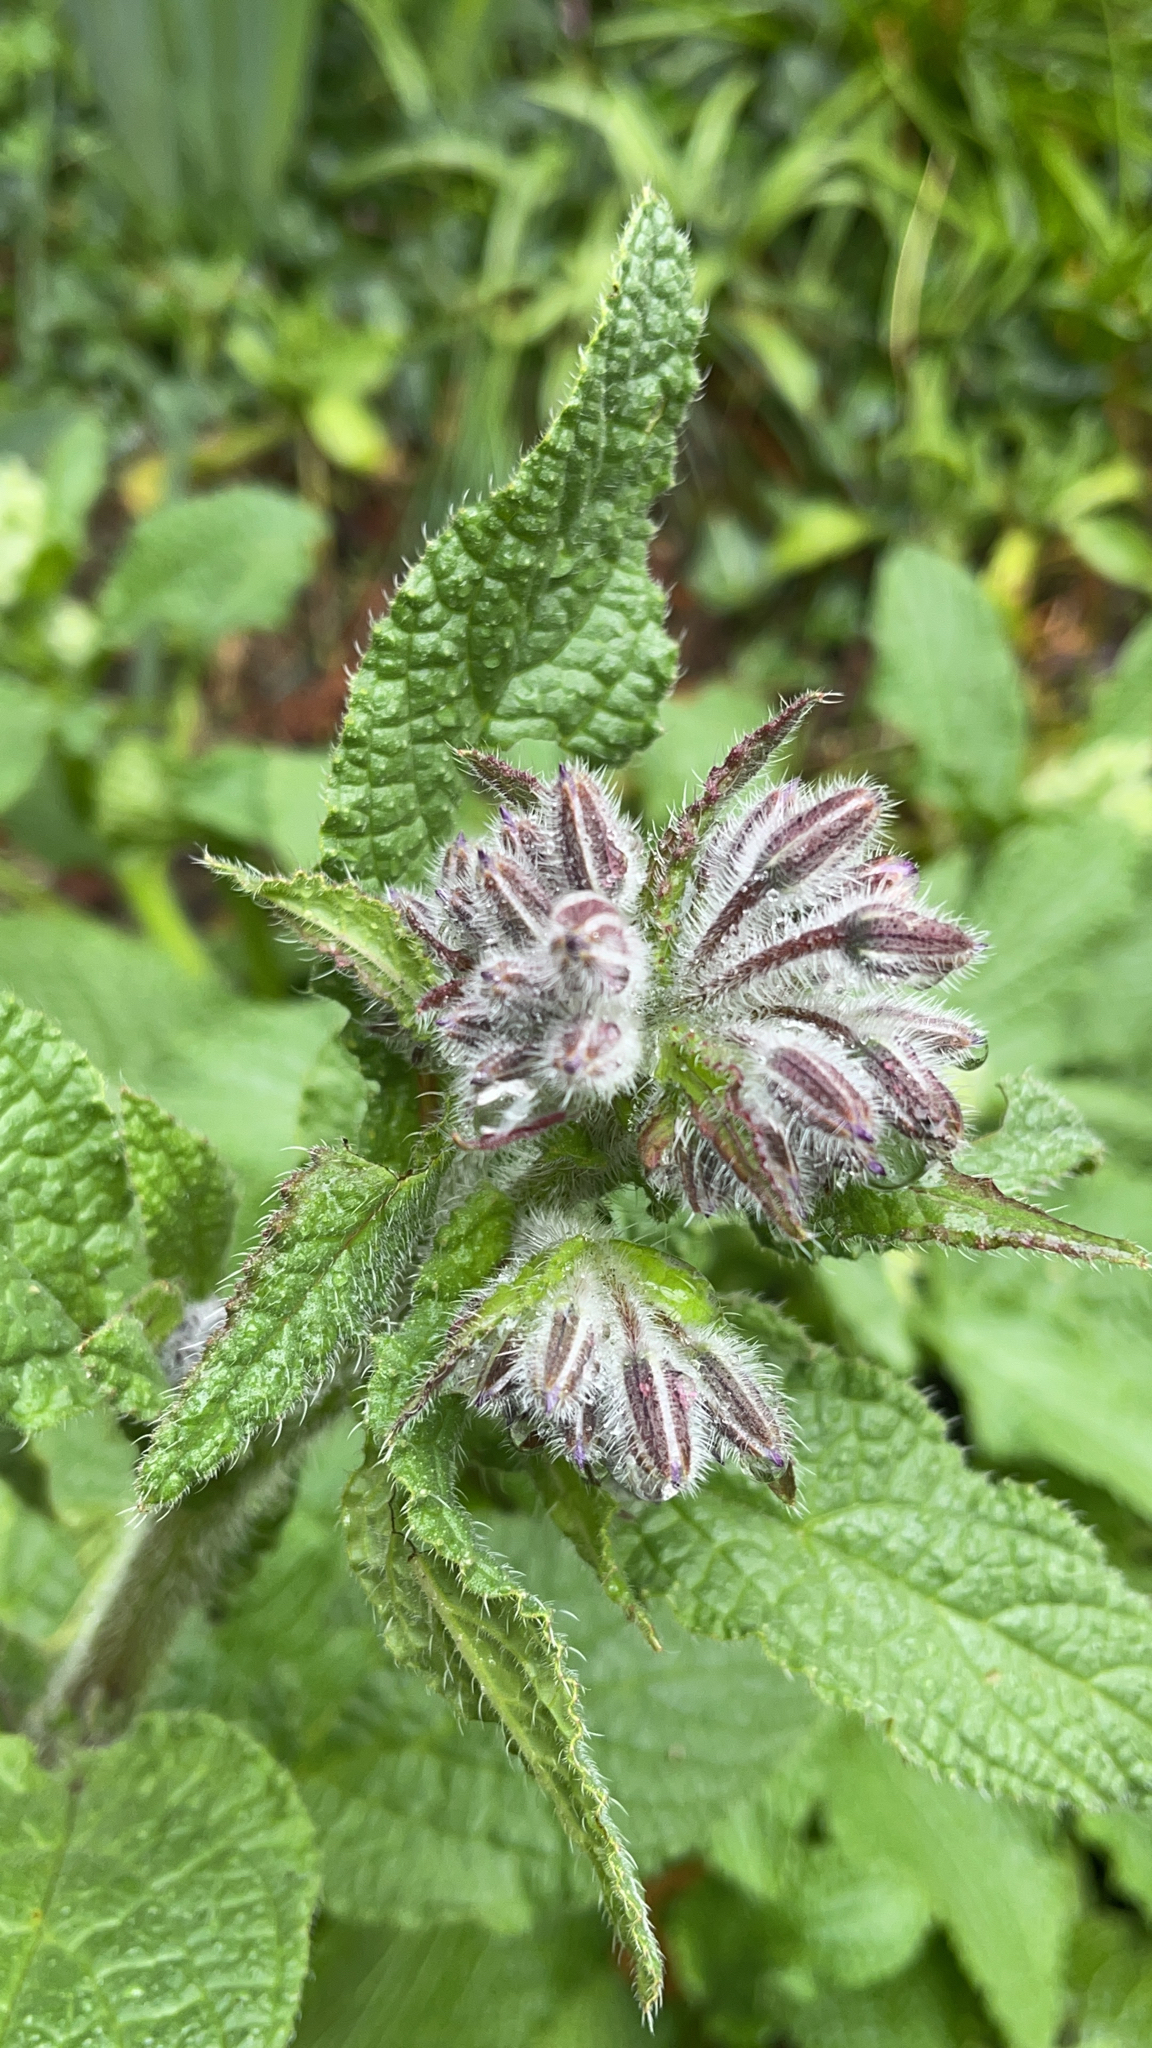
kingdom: Plantae
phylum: Tracheophyta
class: Magnoliopsida
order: Boraginales
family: Boraginaceae
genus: Borago
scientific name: Borago officinalis
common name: Borage
